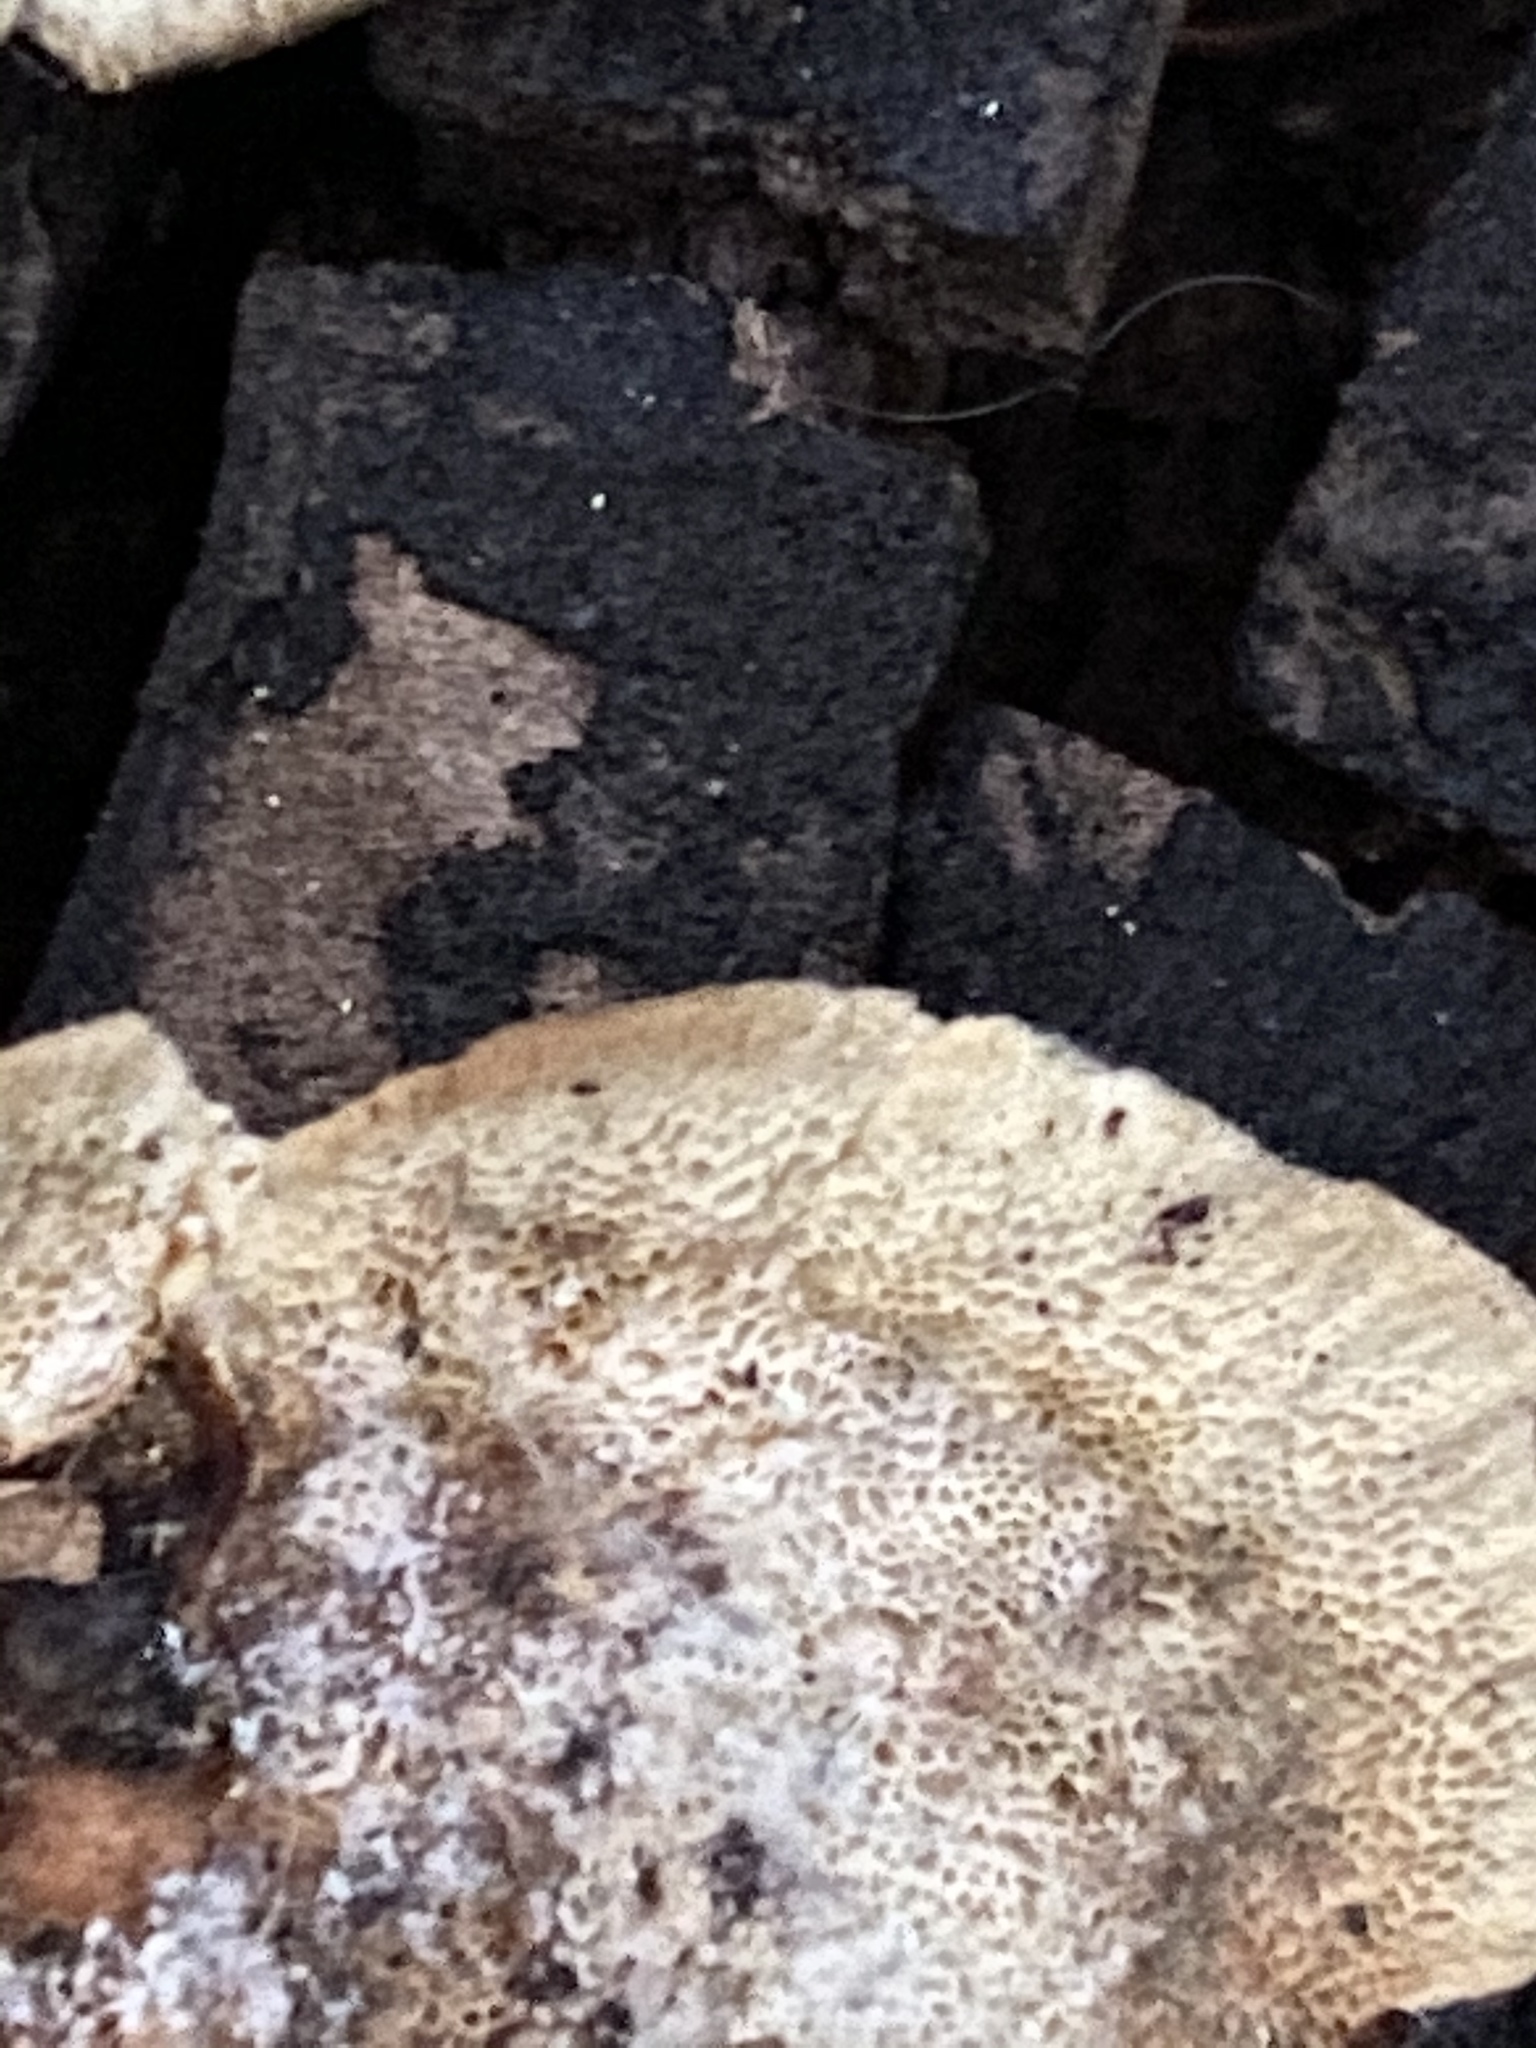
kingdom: Fungi
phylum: Basidiomycota
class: Agaricomycetes
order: Polyporales
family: Polyporaceae
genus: Trametes
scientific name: Trametes versicolor
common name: Turkeytail
